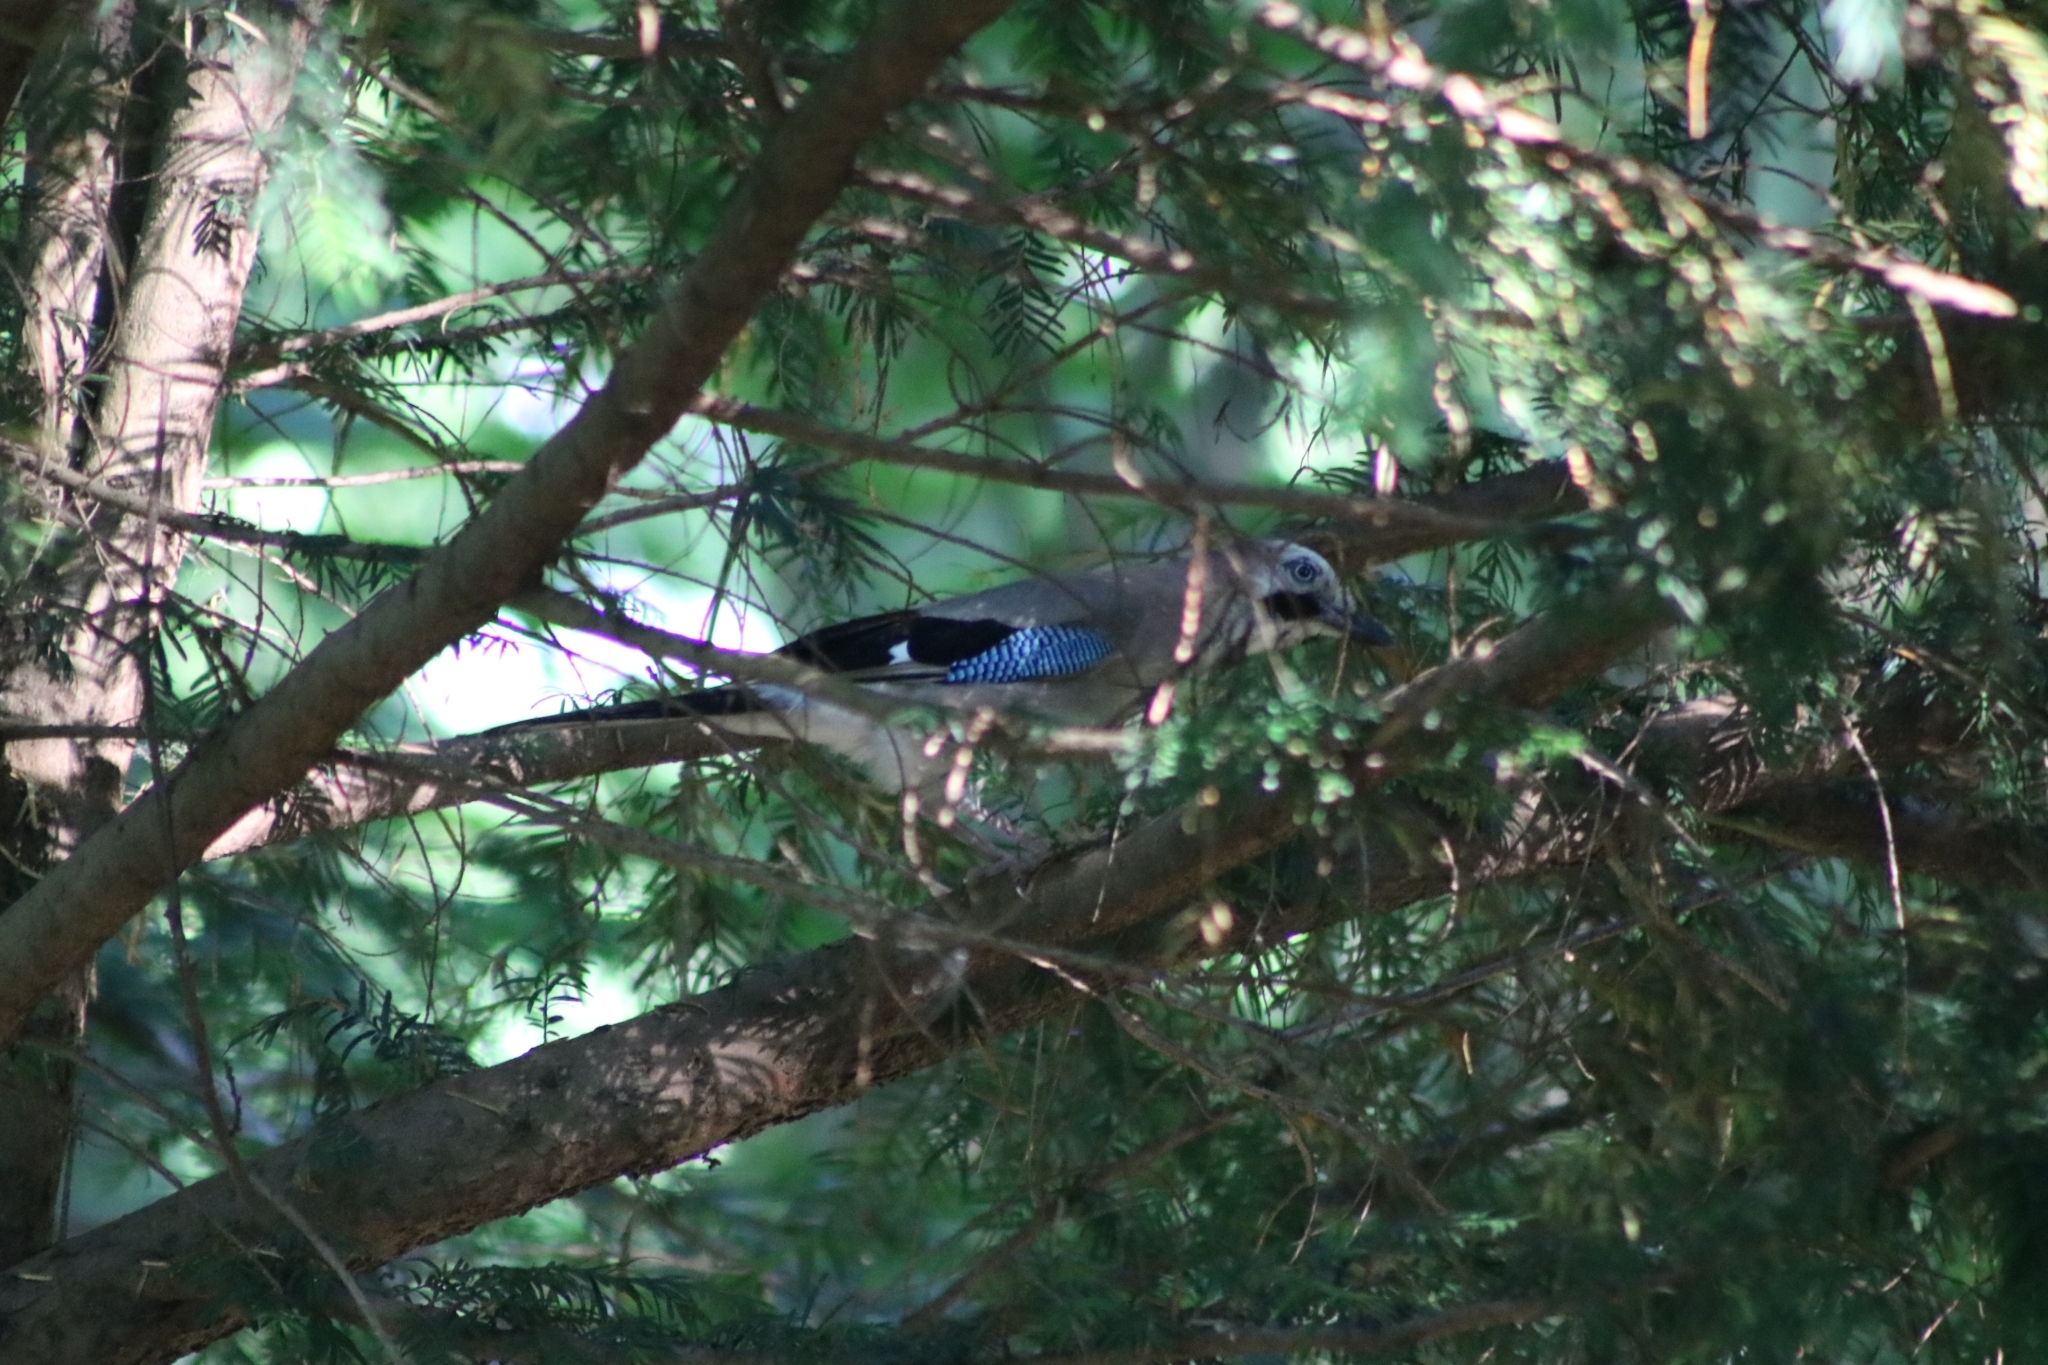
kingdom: Animalia
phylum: Chordata
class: Aves
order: Passeriformes
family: Corvidae
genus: Garrulus
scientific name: Garrulus glandarius
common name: Eurasian jay
